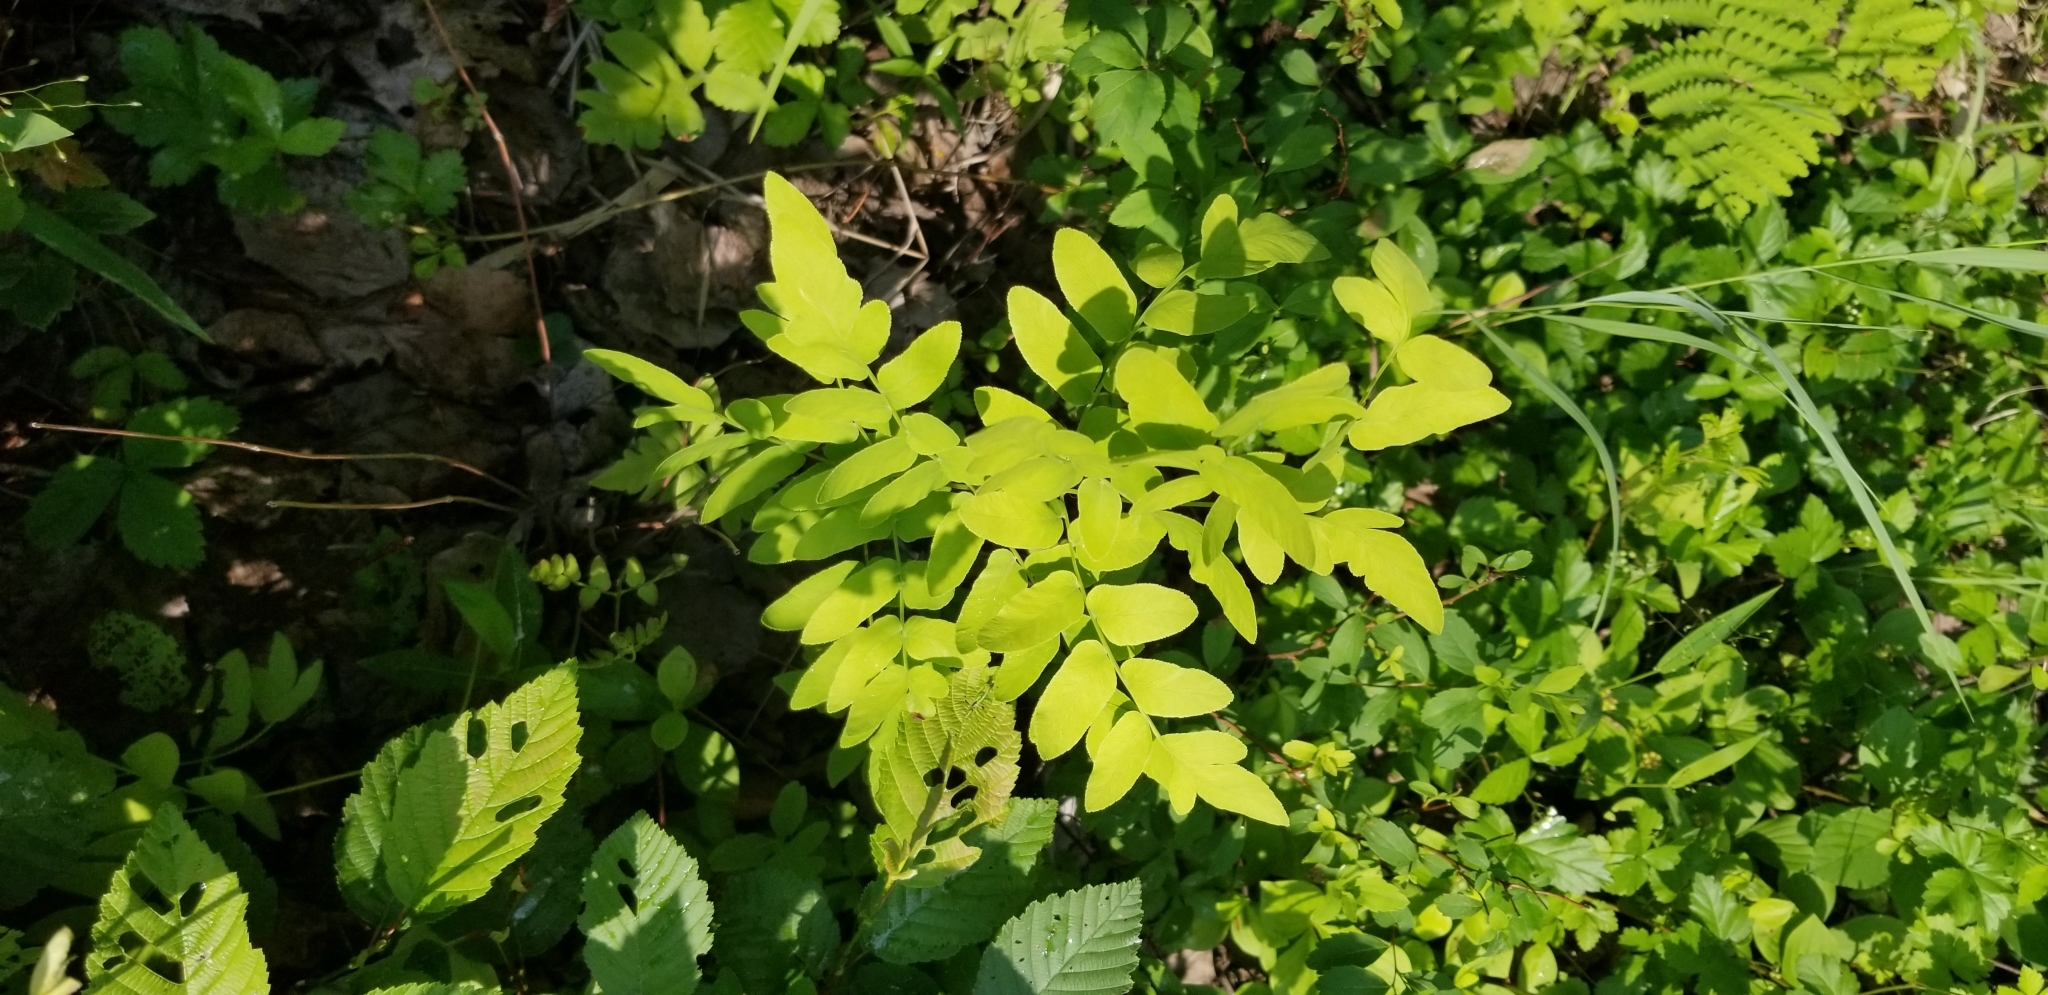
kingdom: Plantae
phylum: Tracheophyta
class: Polypodiopsida
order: Osmundales
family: Osmundaceae
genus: Osmunda
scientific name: Osmunda spectabilis
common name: American royal fern
